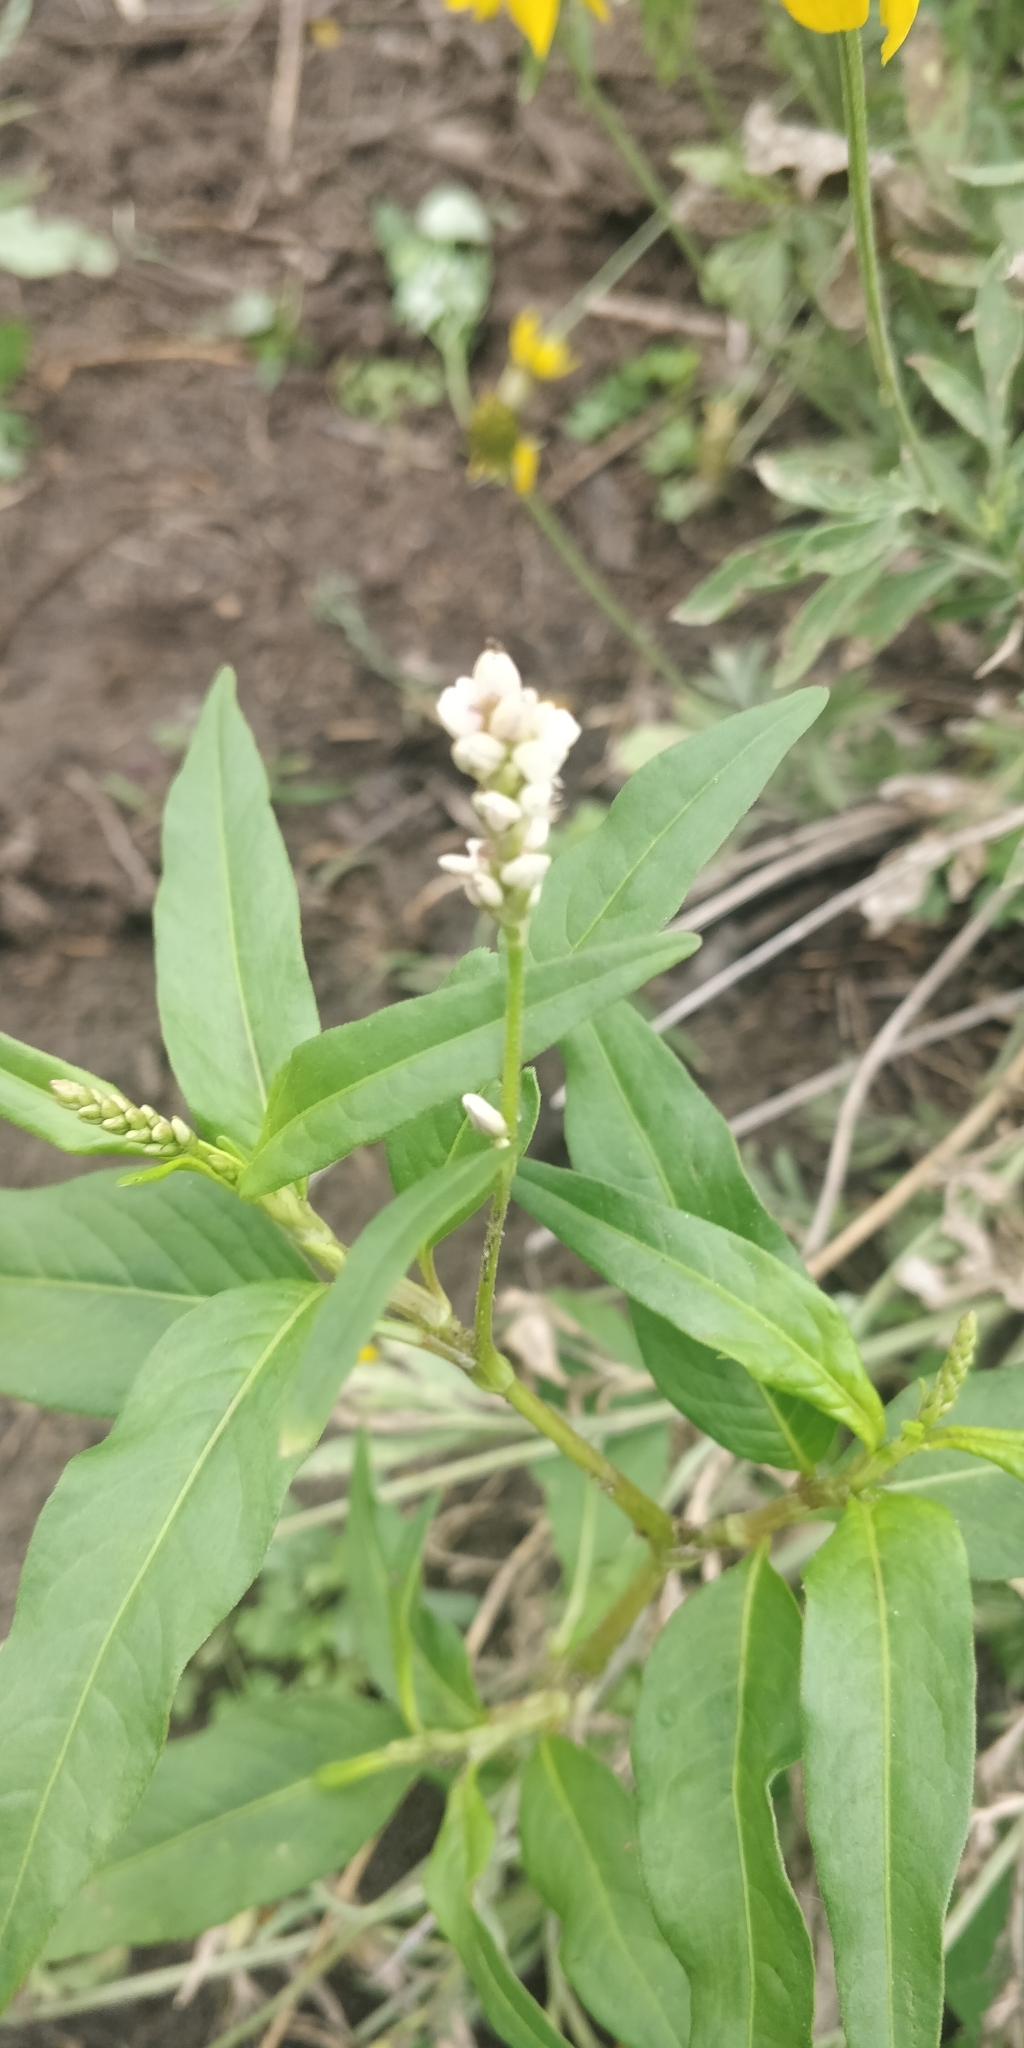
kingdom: Plantae
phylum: Tracheophyta
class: Magnoliopsida
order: Caryophyllales
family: Polygonaceae
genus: Persicaria
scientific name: Persicaria pensylvanica
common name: Pinkweed
